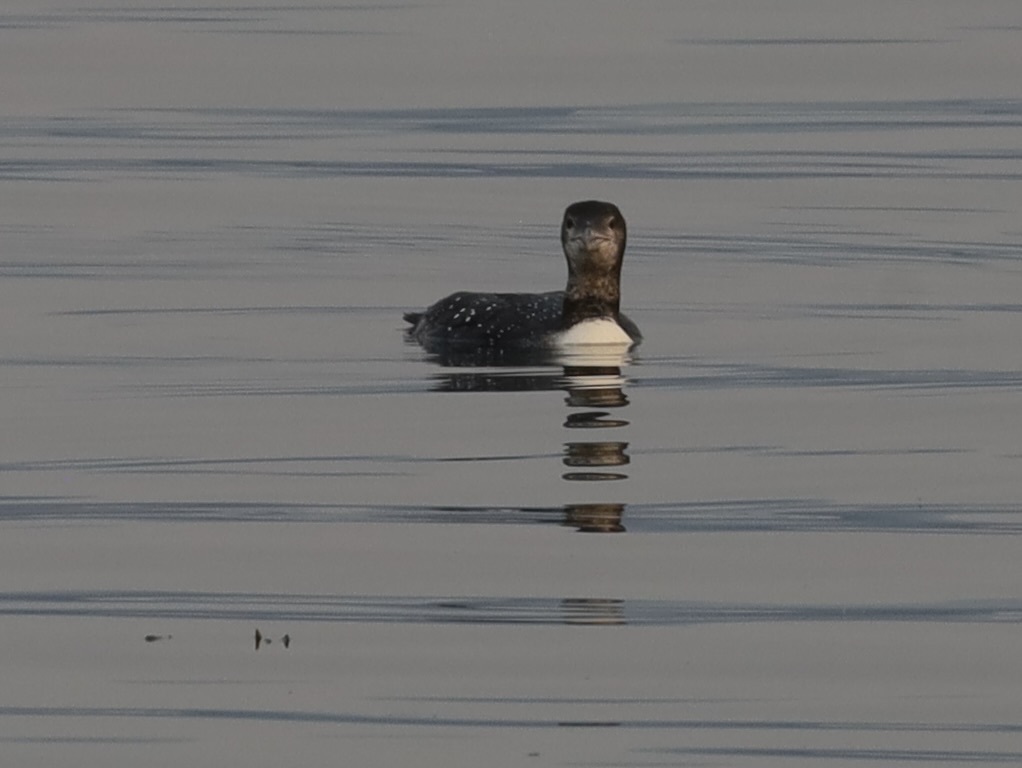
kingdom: Animalia
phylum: Chordata
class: Aves
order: Gaviiformes
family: Gaviidae
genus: Gavia
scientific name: Gavia immer
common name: Common loon
